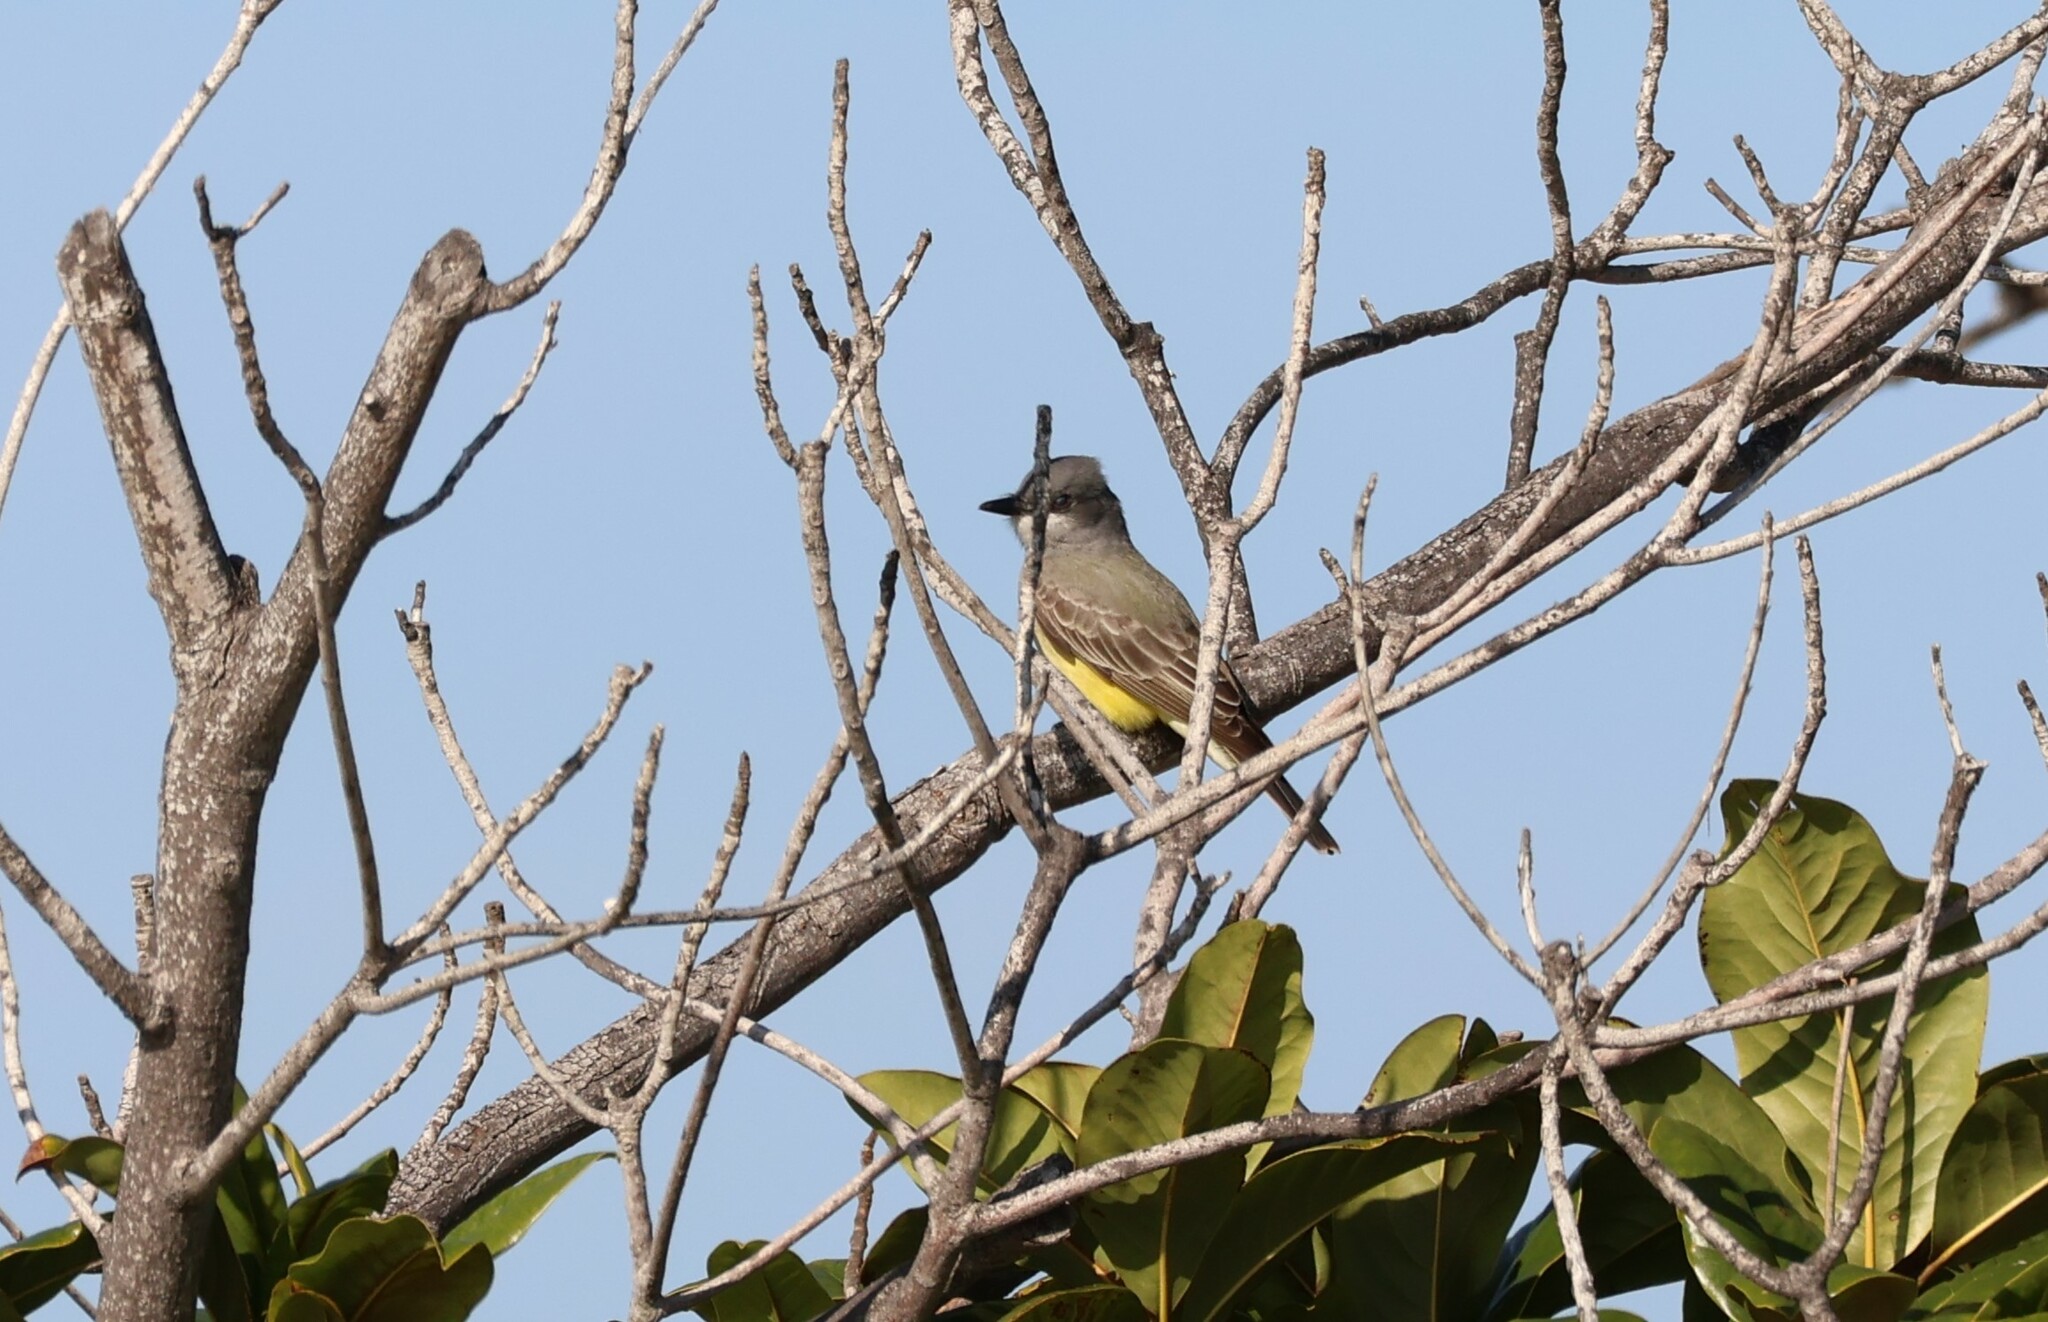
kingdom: Animalia
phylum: Chordata
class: Aves
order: Passeriformes
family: Tyrannidae
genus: Tyrannus
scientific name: Tyrannus vociferans
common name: Cassin's kingbird
